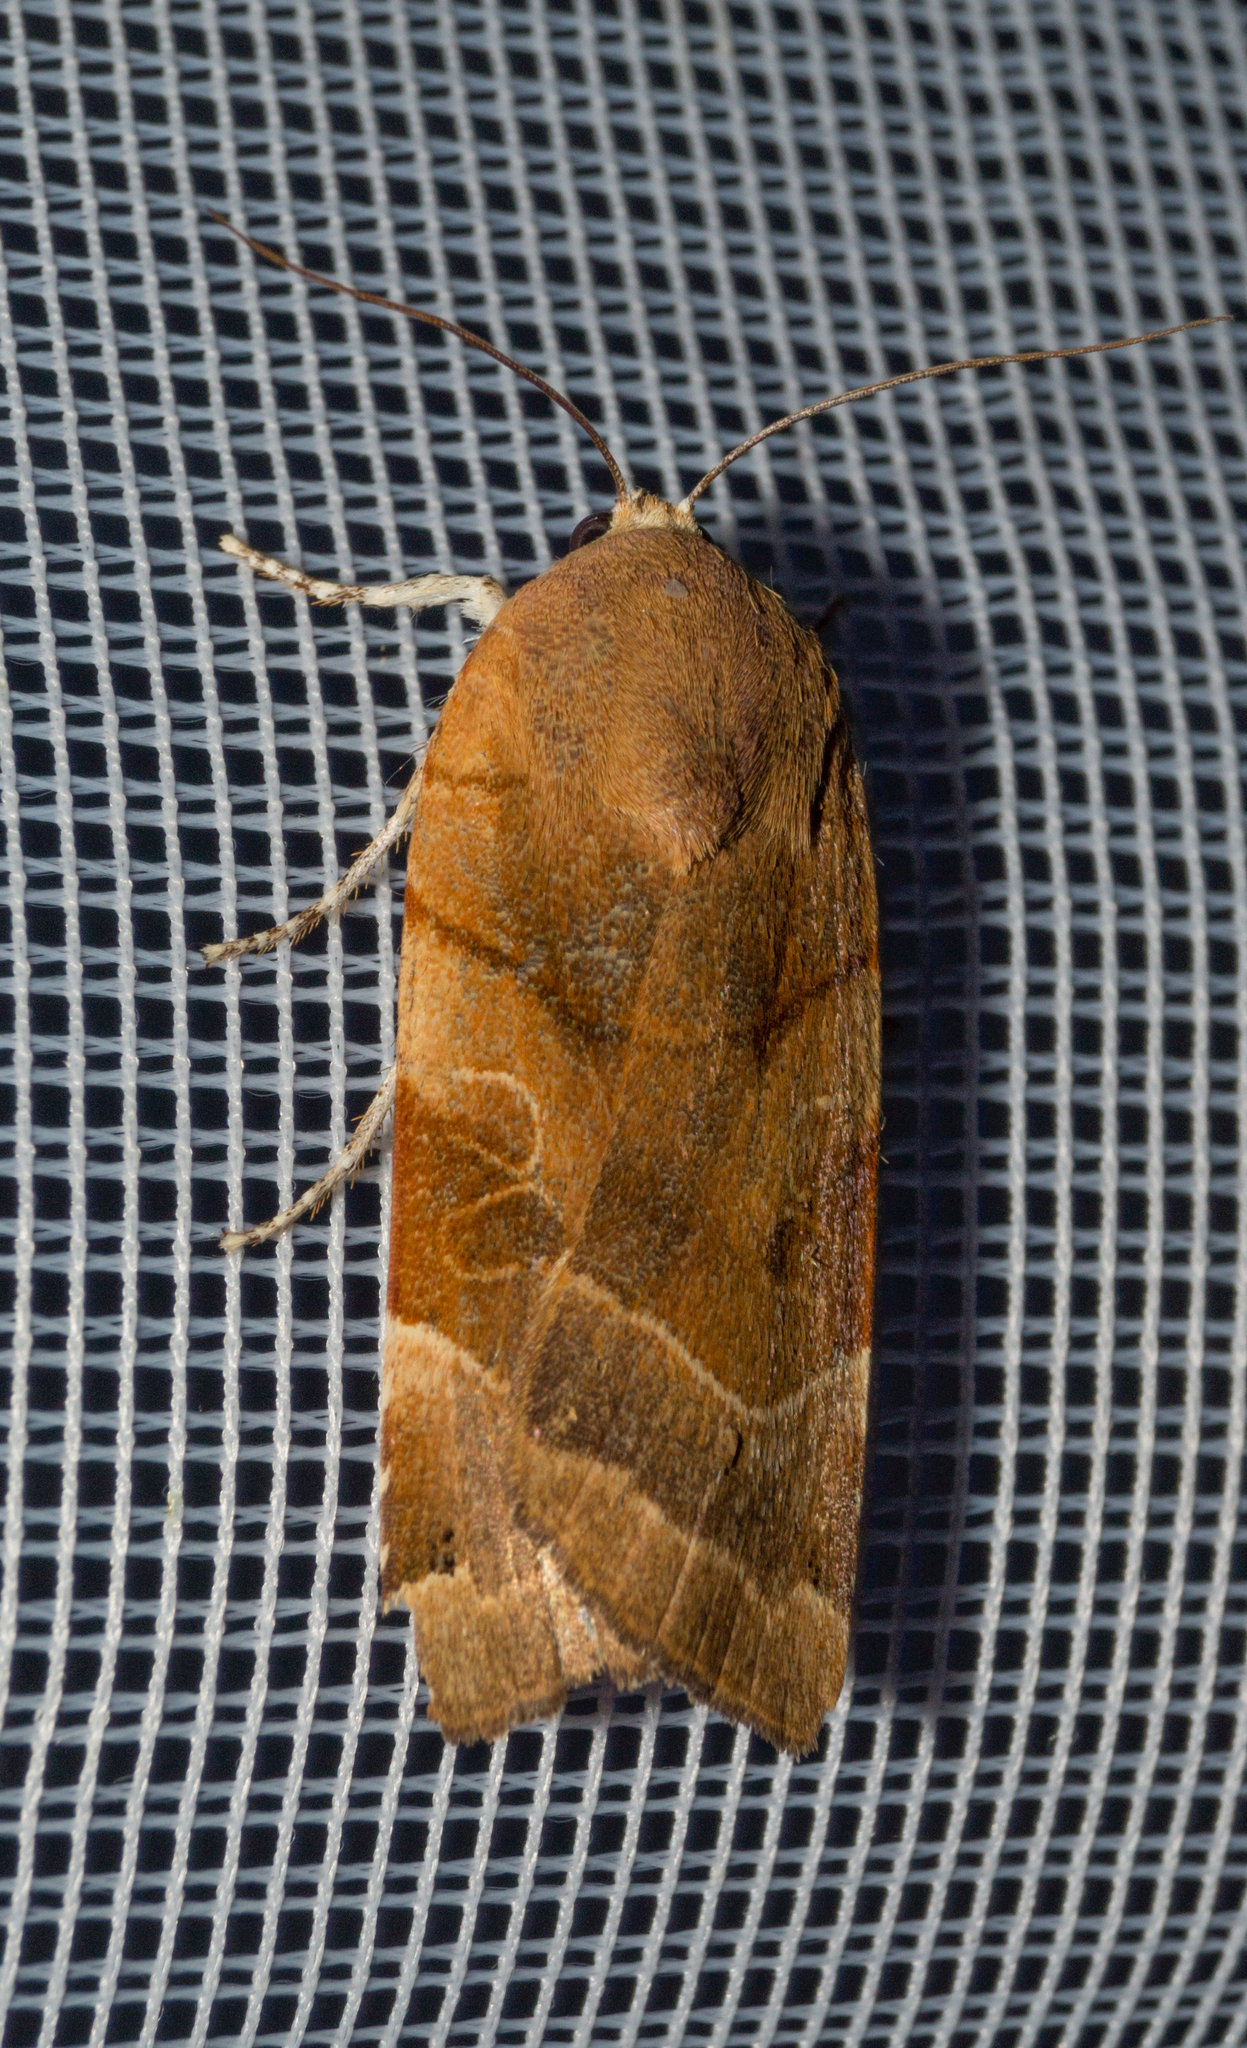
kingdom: Animalia
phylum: Arthropoda
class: Insecta
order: Lepidoptera
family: Noctuidae
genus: Noctua
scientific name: Noctua fimbriata
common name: Broad-bordered yellow underwing
